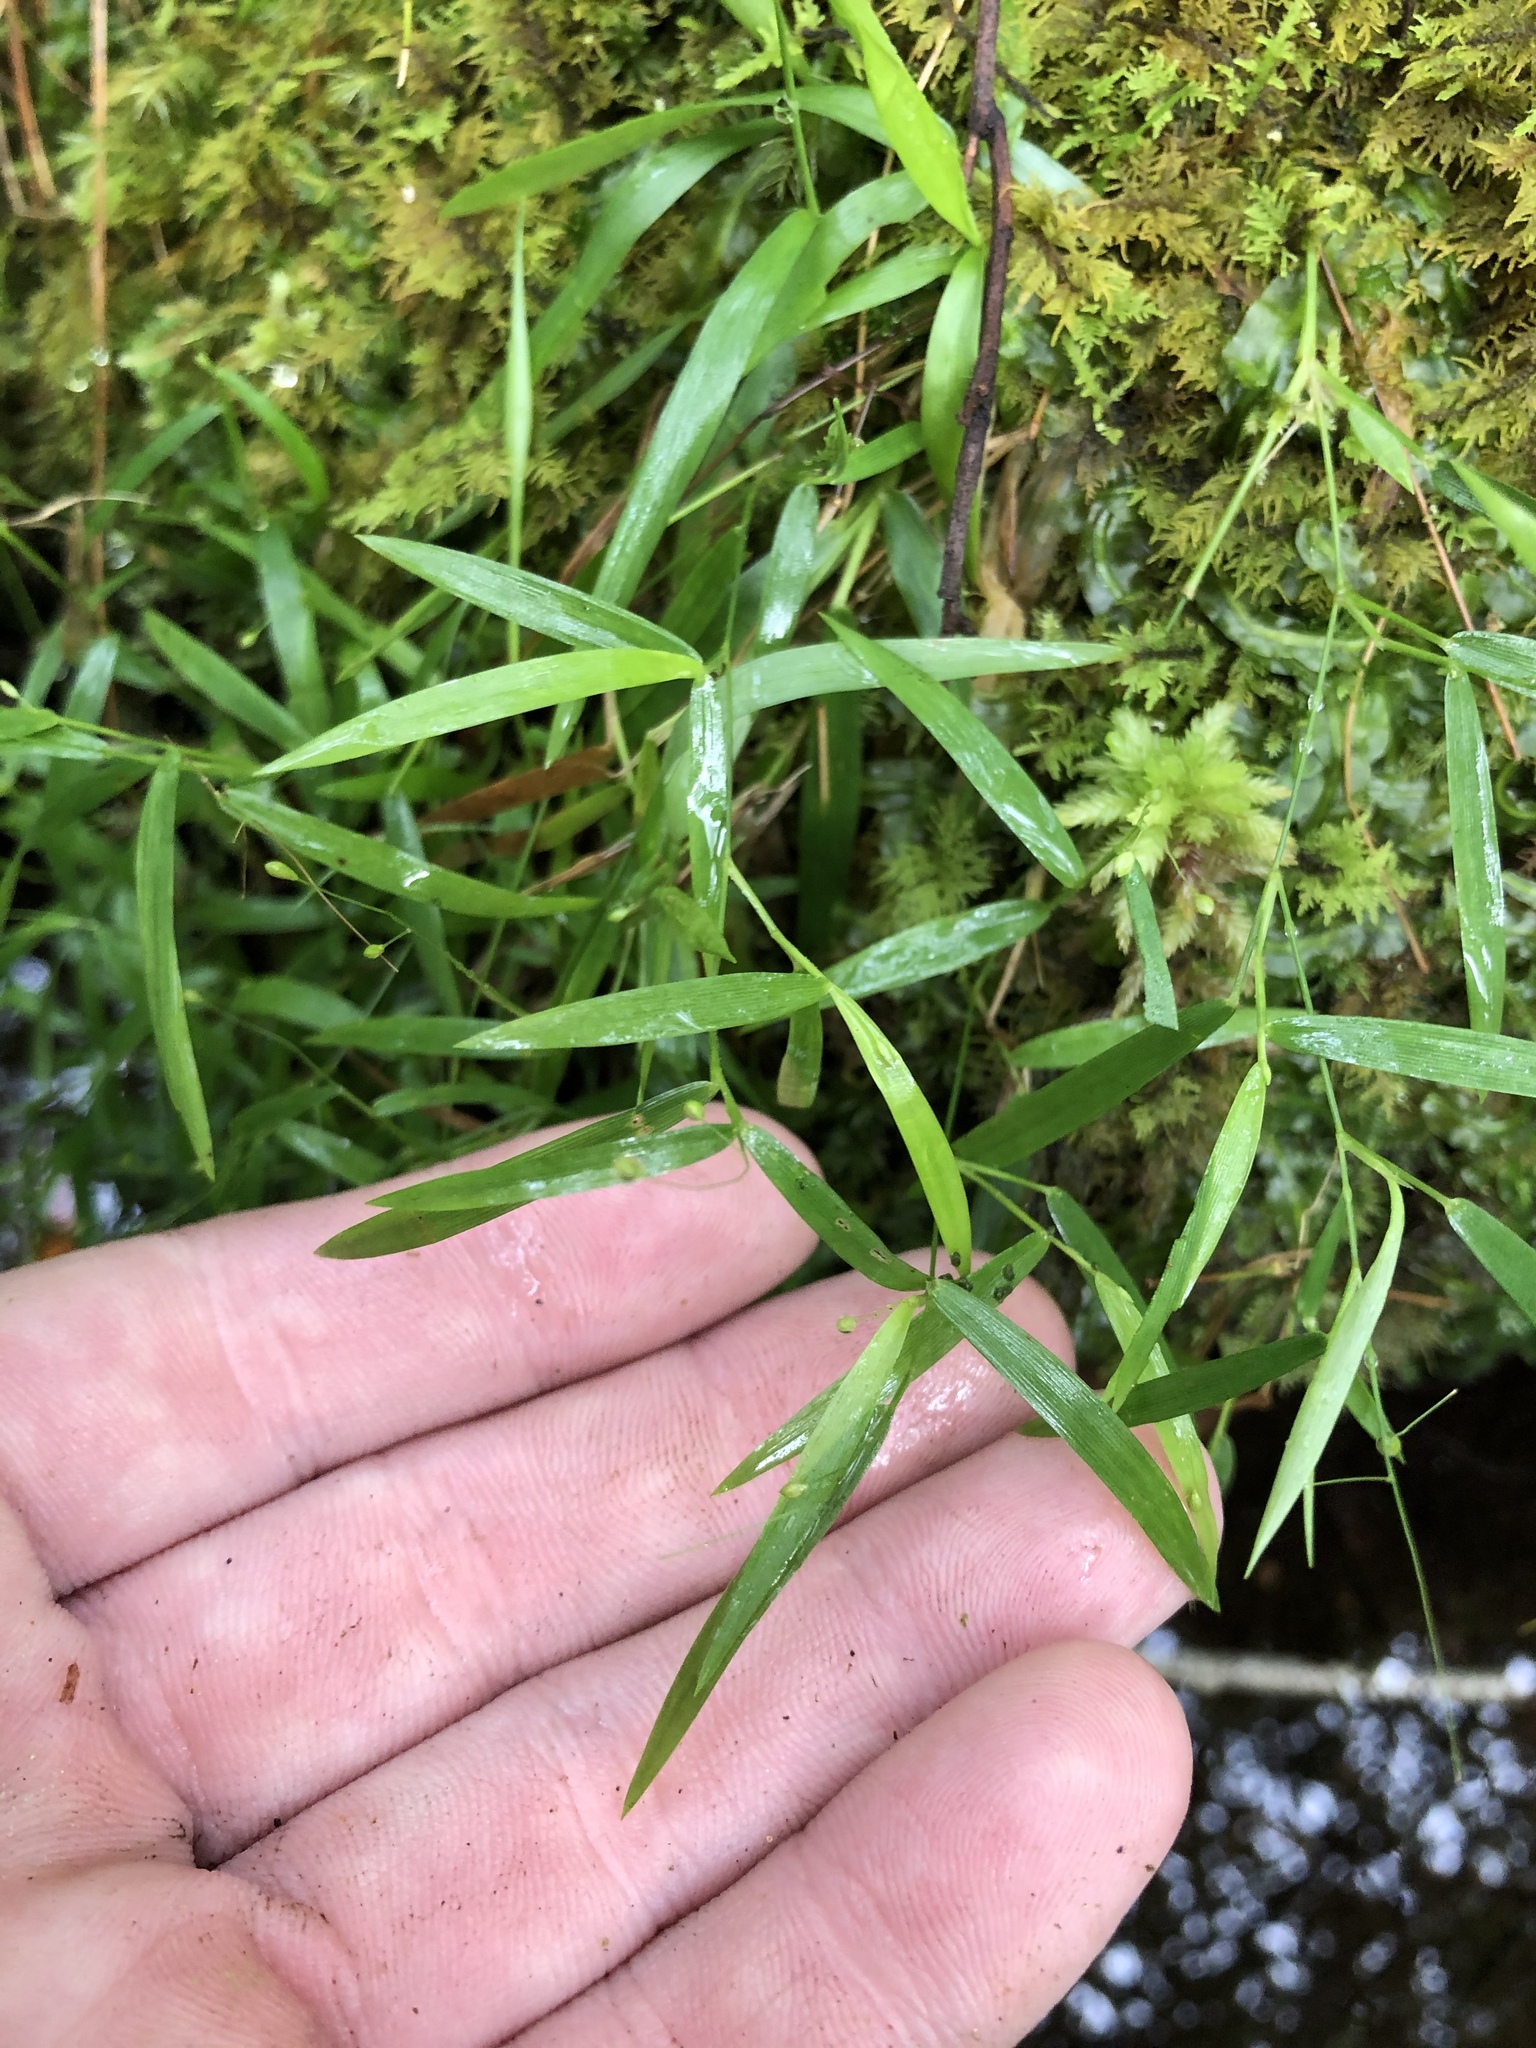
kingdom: Plantae
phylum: Tracheophyta
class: Liliopsida
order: Poales
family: Poaceae
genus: Dichanthelium
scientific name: Dichanthelium lucidum
